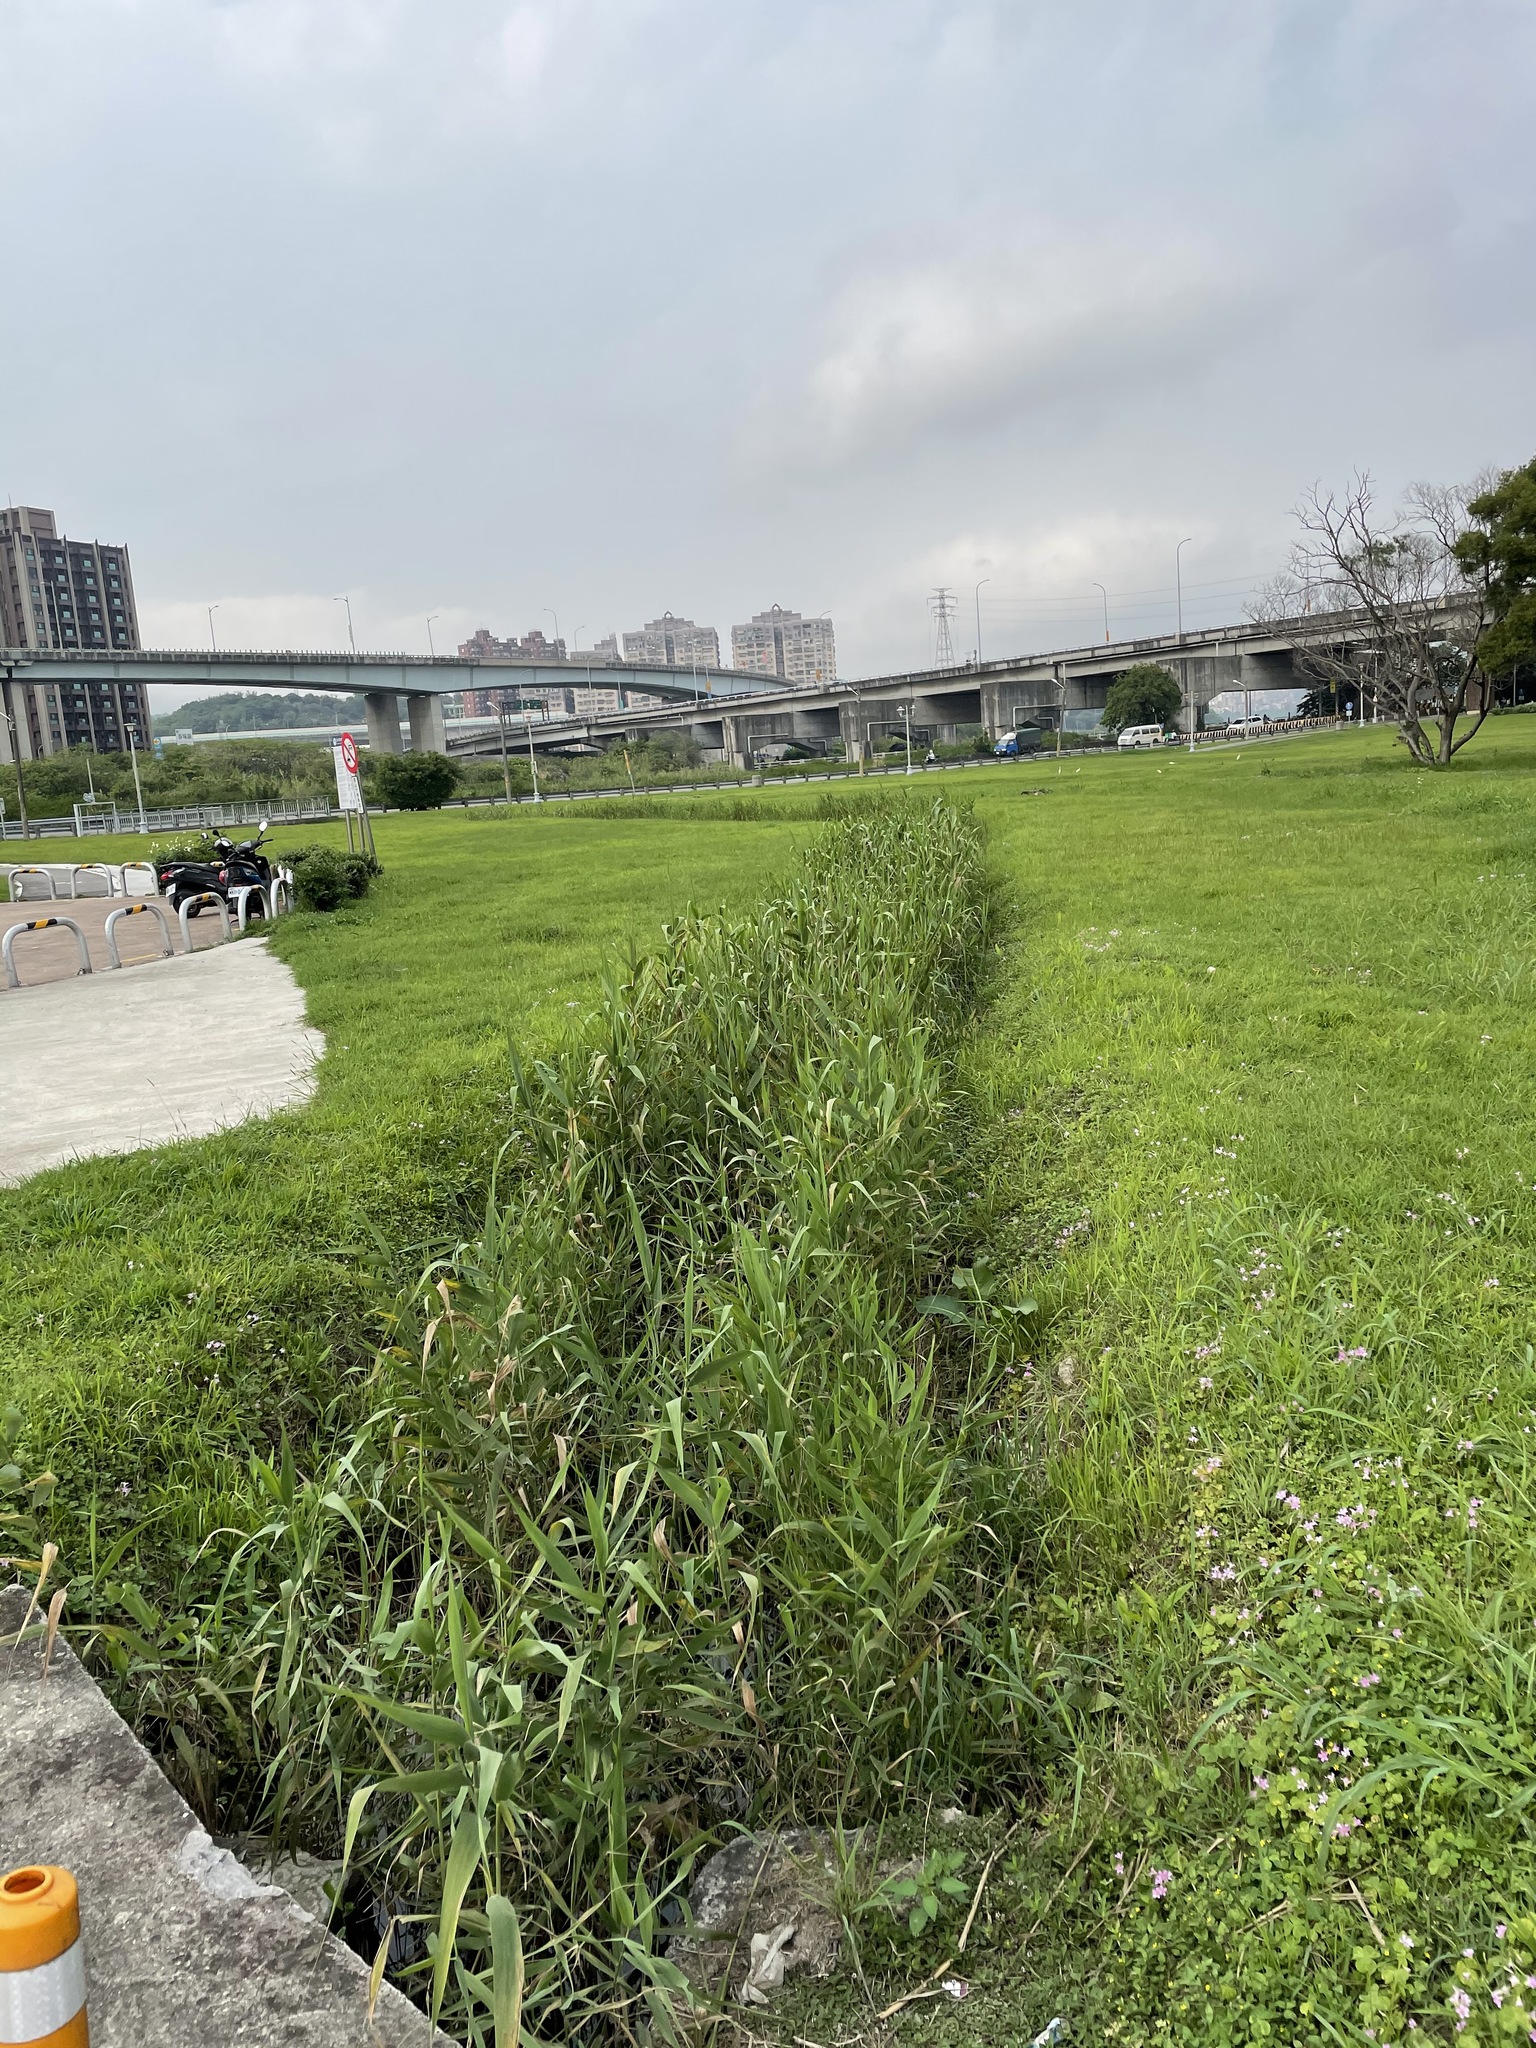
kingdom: Plantae
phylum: Tracheophyta
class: Liliopsida
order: Poales
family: Poaceae
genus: Phragmites
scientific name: Phragmites australis
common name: Common reed
